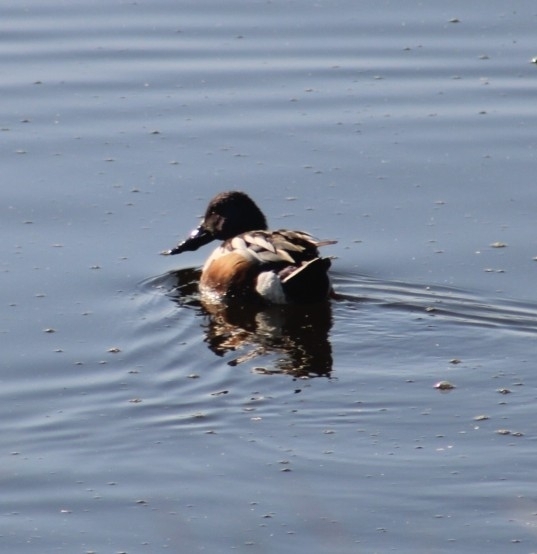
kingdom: Animalia
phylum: Chordata
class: Aves
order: Anseriformes
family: Anatidae
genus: Spatula
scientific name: Spatula clypeata
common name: Northern shoveler
